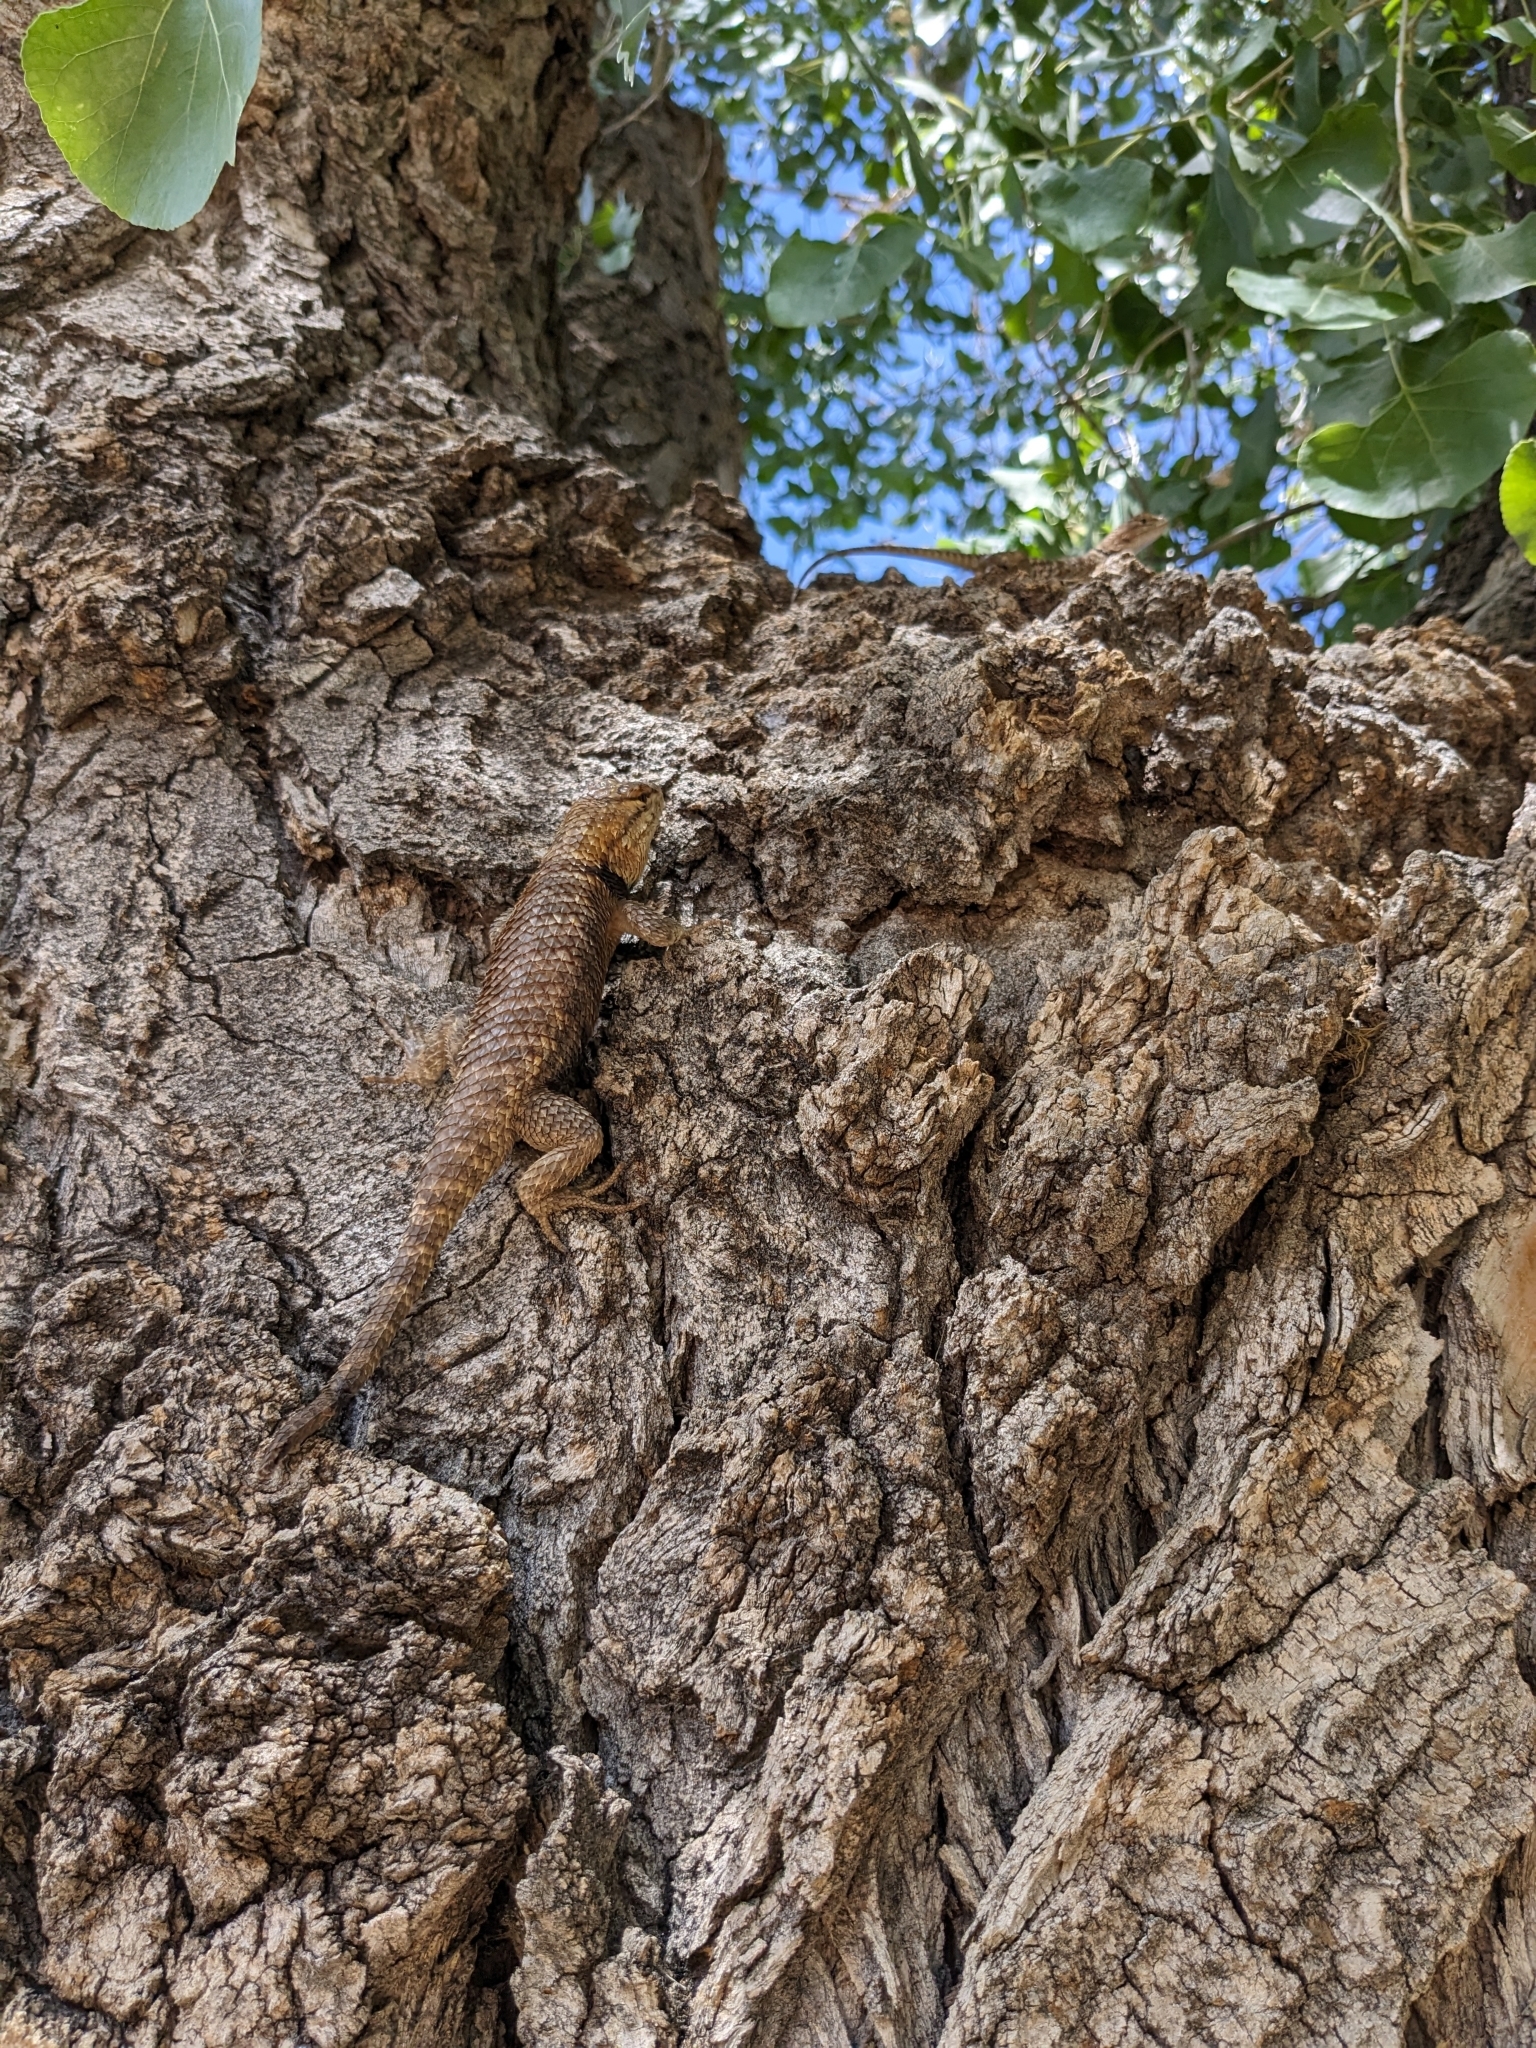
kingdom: Animalia
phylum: Chordata
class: Squamata
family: Phrynosomatidae
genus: Sceloporus
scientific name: Sceloporus uniformis
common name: Yellow-backed spiny lizard
